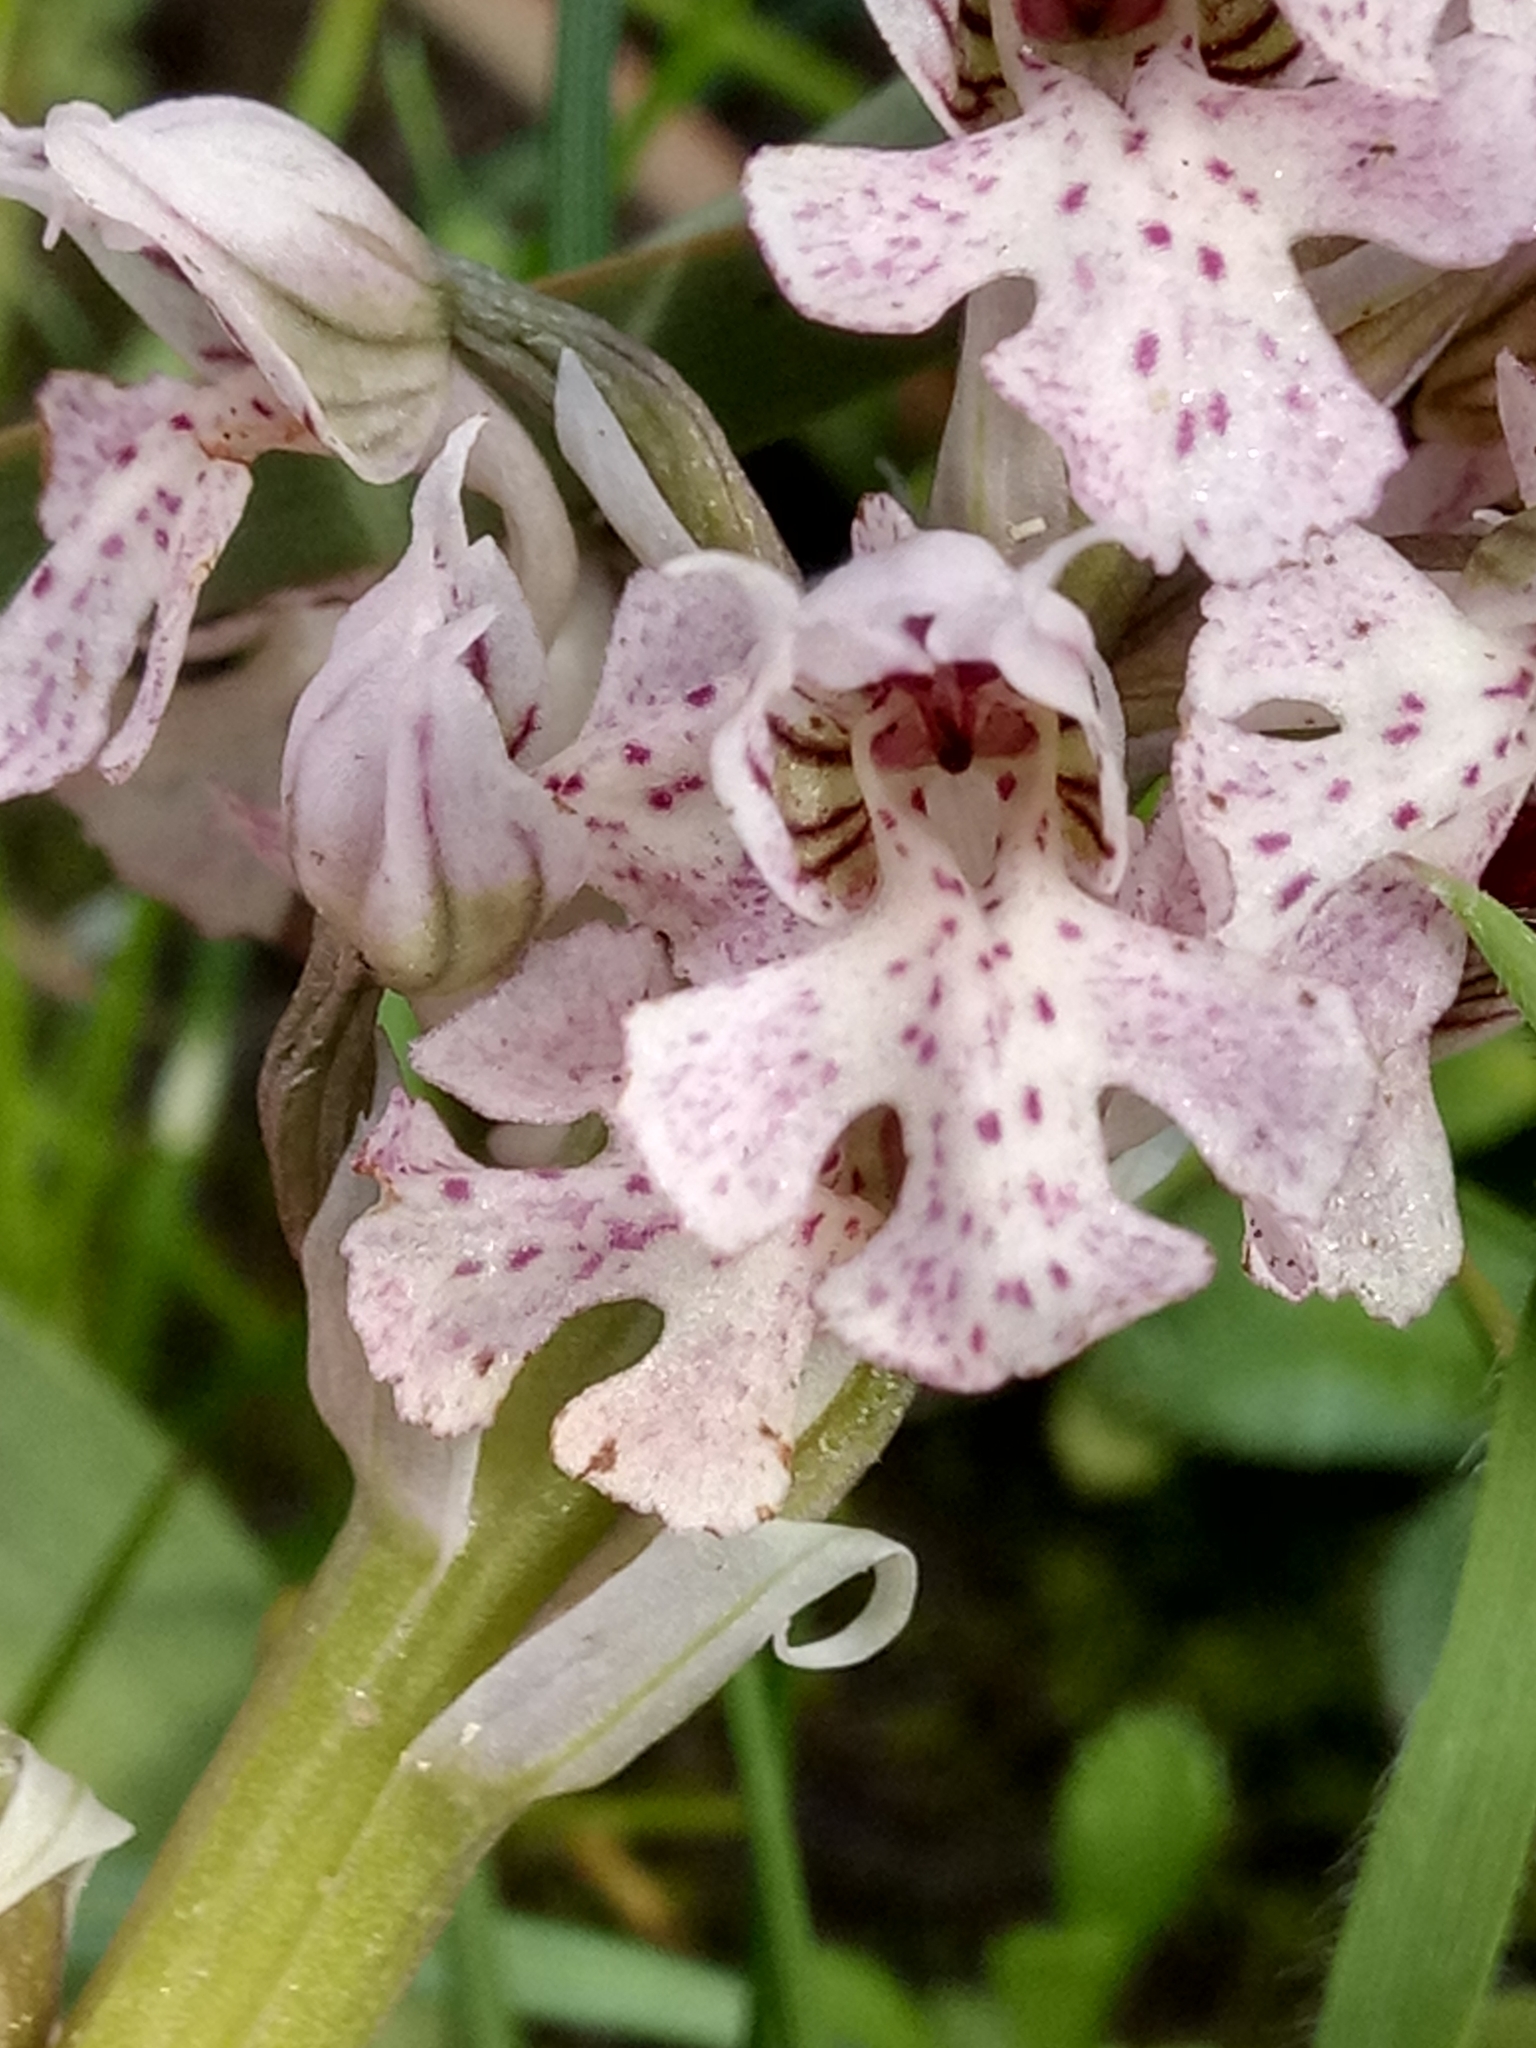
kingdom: Plantae
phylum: Tracheophyta
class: Liliopsida
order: Asparagales
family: Orchidaceae
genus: Neotinea
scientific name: Neotinea lactea
